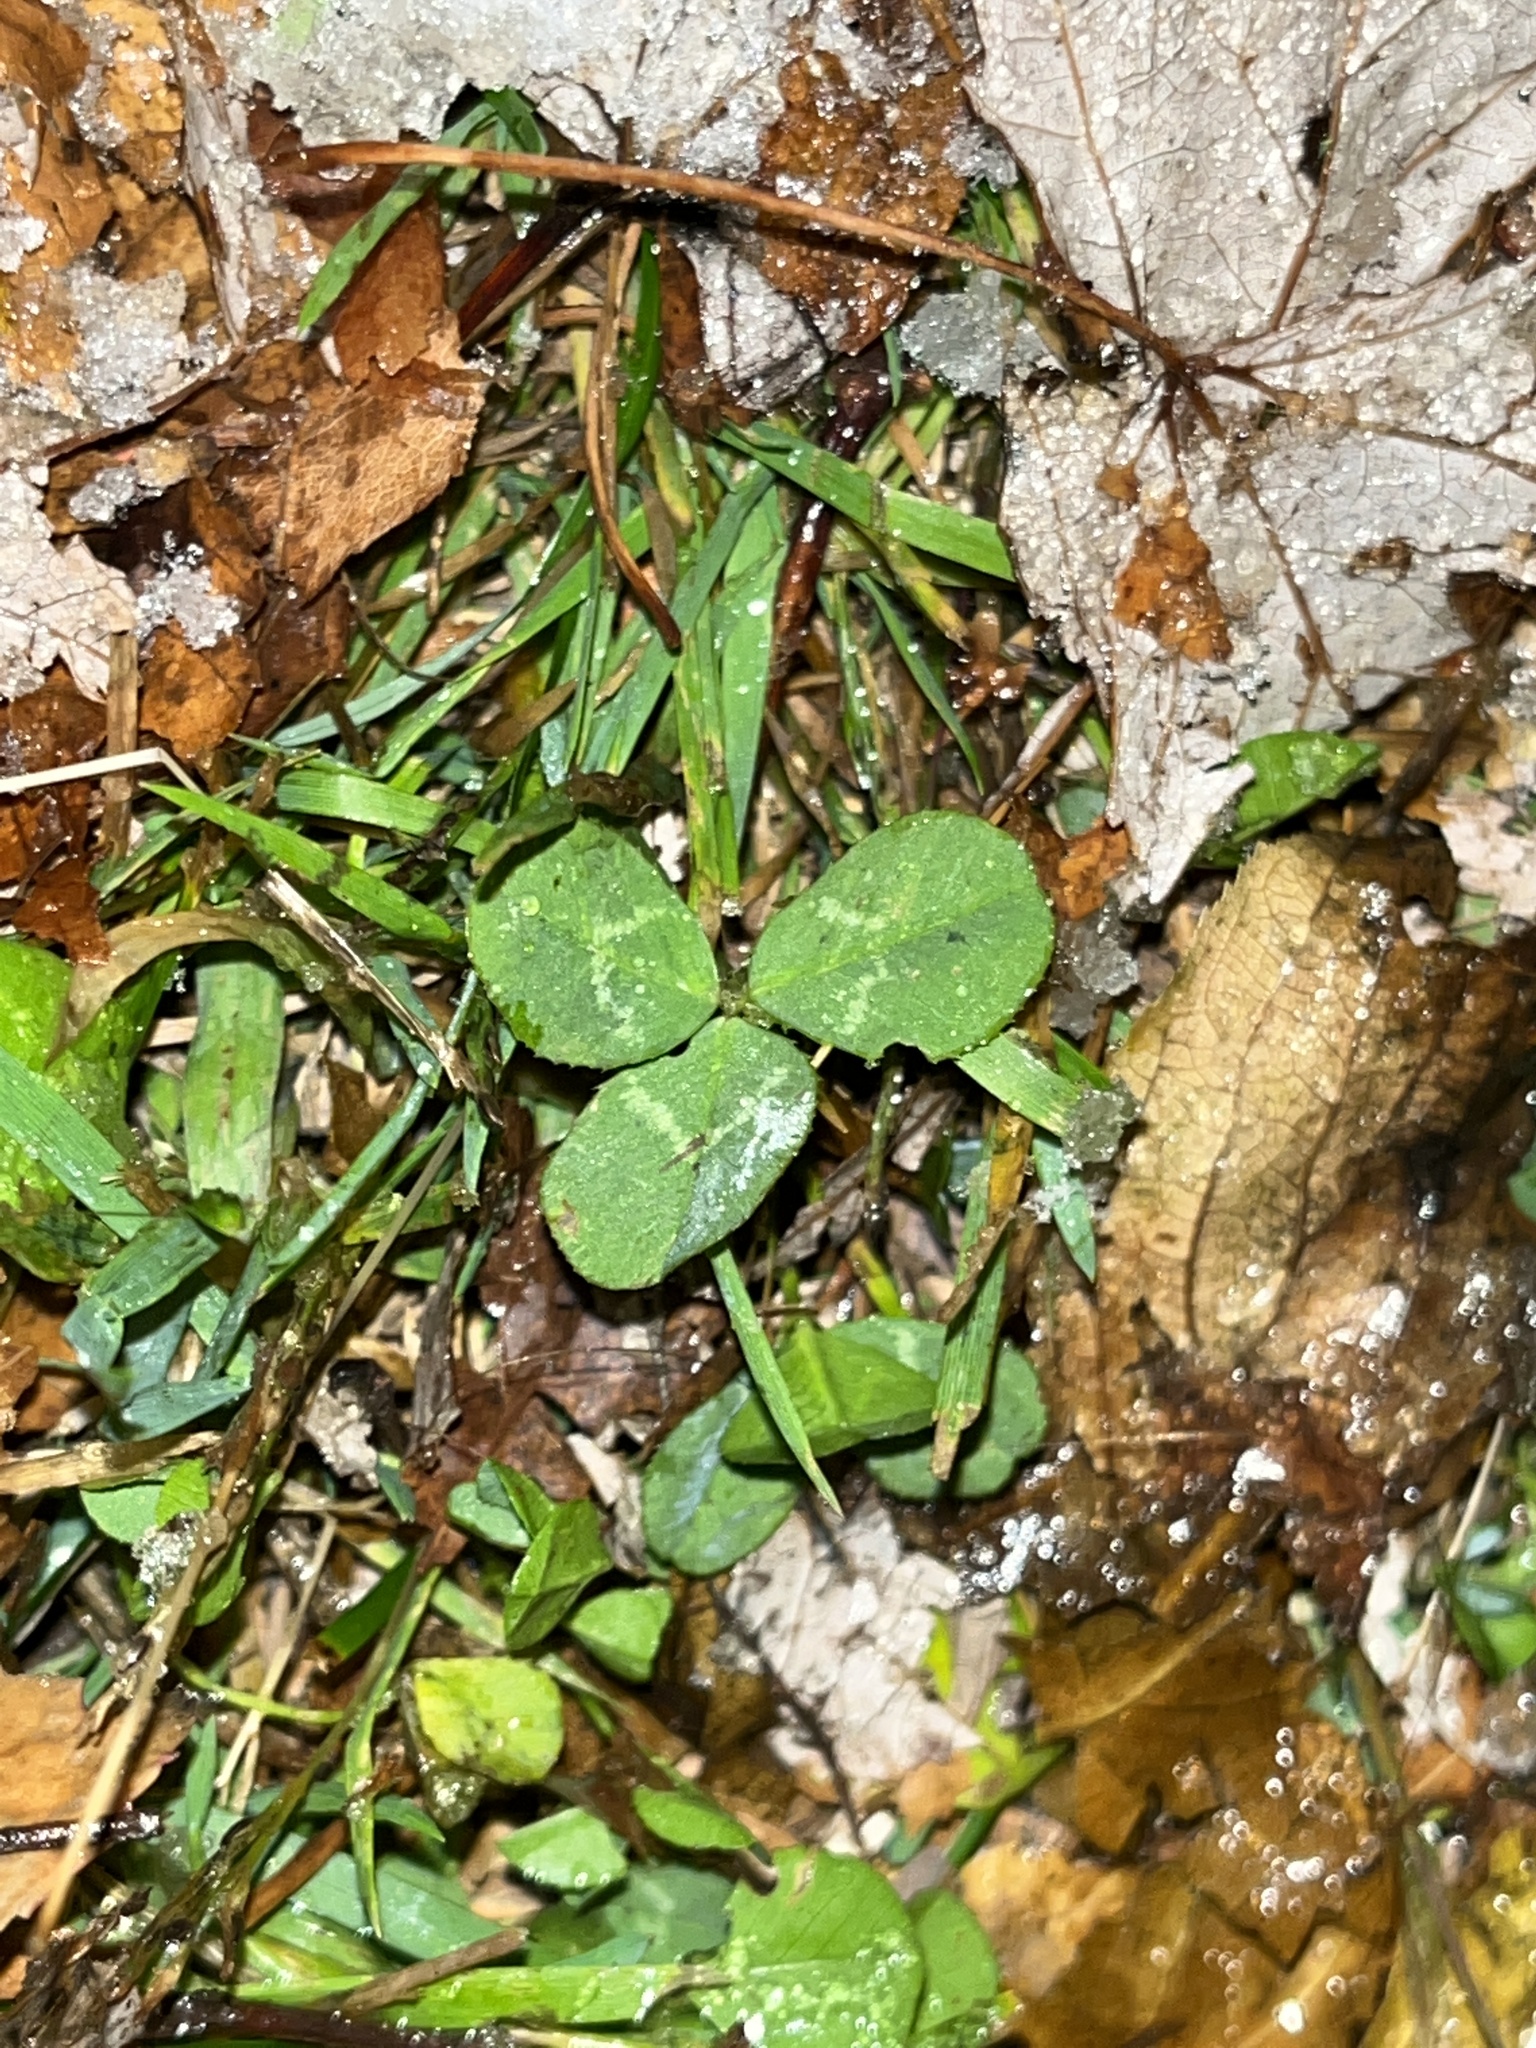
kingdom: Plantae
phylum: Tracheophyta
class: Magnoliopsida
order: Fabales
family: Fabaceae
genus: Trifolium
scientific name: Trifolium repens
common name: White clover
